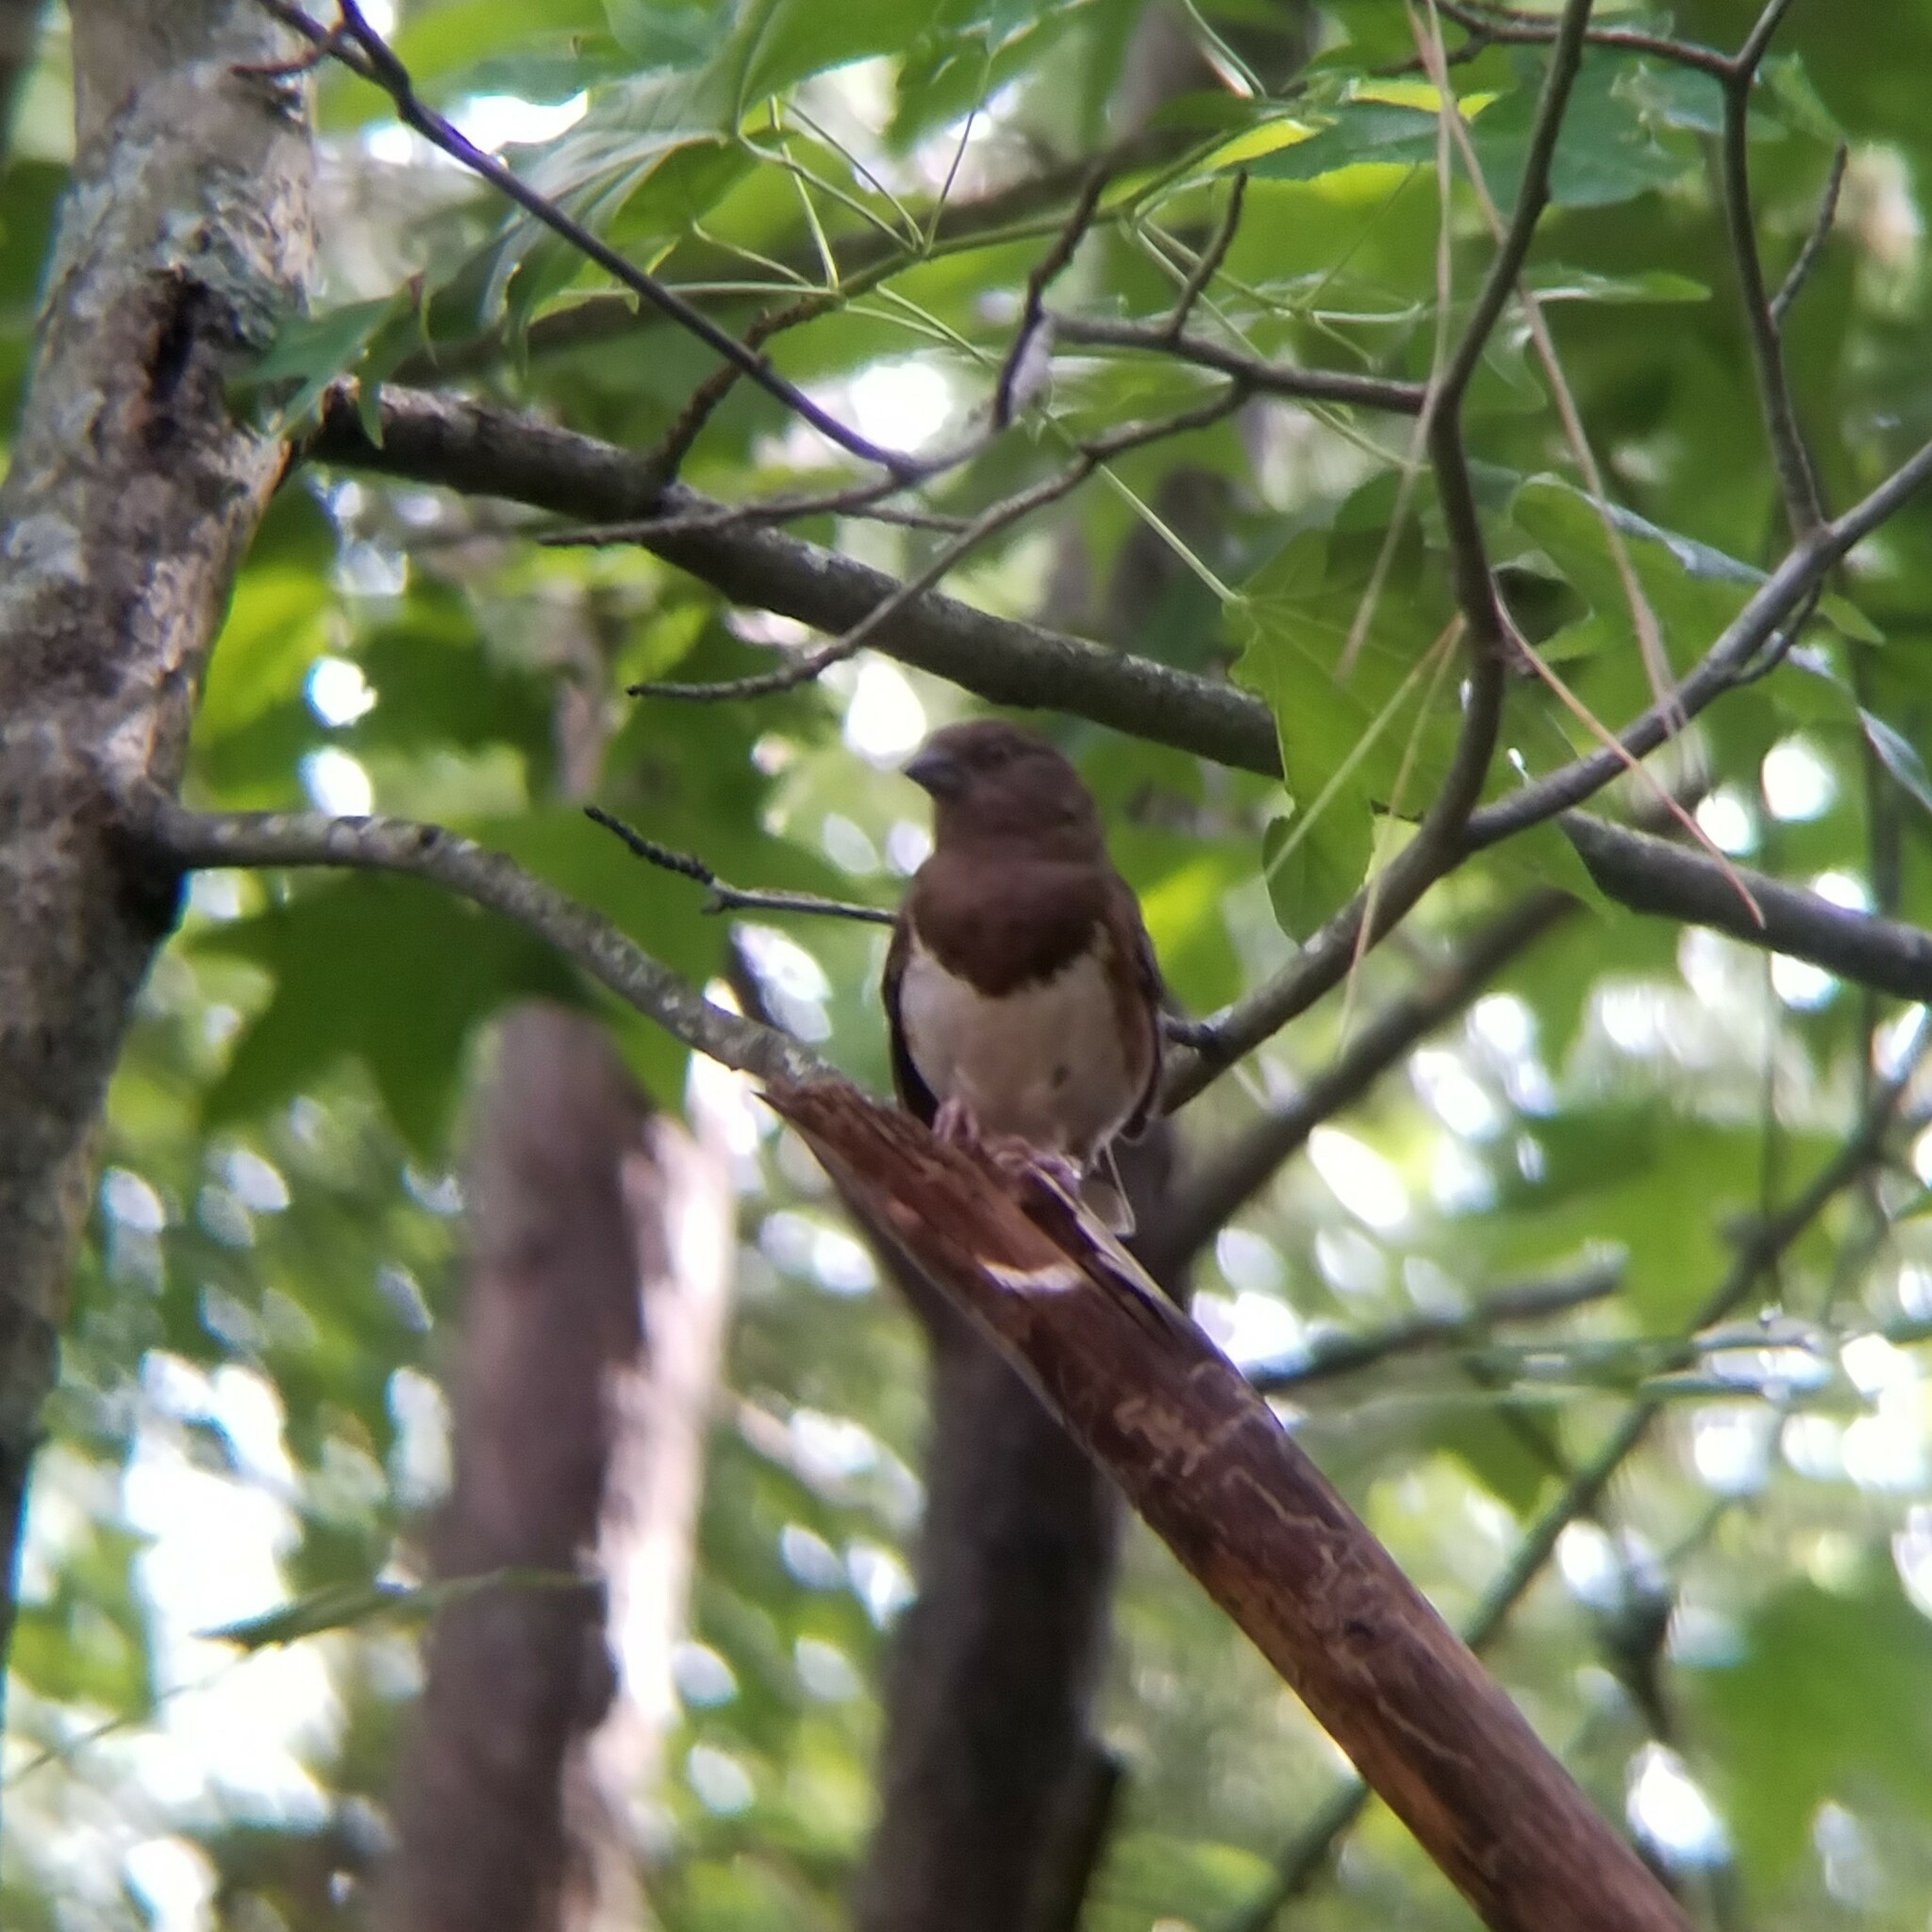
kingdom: Animalia
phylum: Chordata
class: Aves
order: Passeriformes
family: Passerellidae
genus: Pipilo
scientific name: Pipilo erythrophthalmus
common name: Eastern towhee
